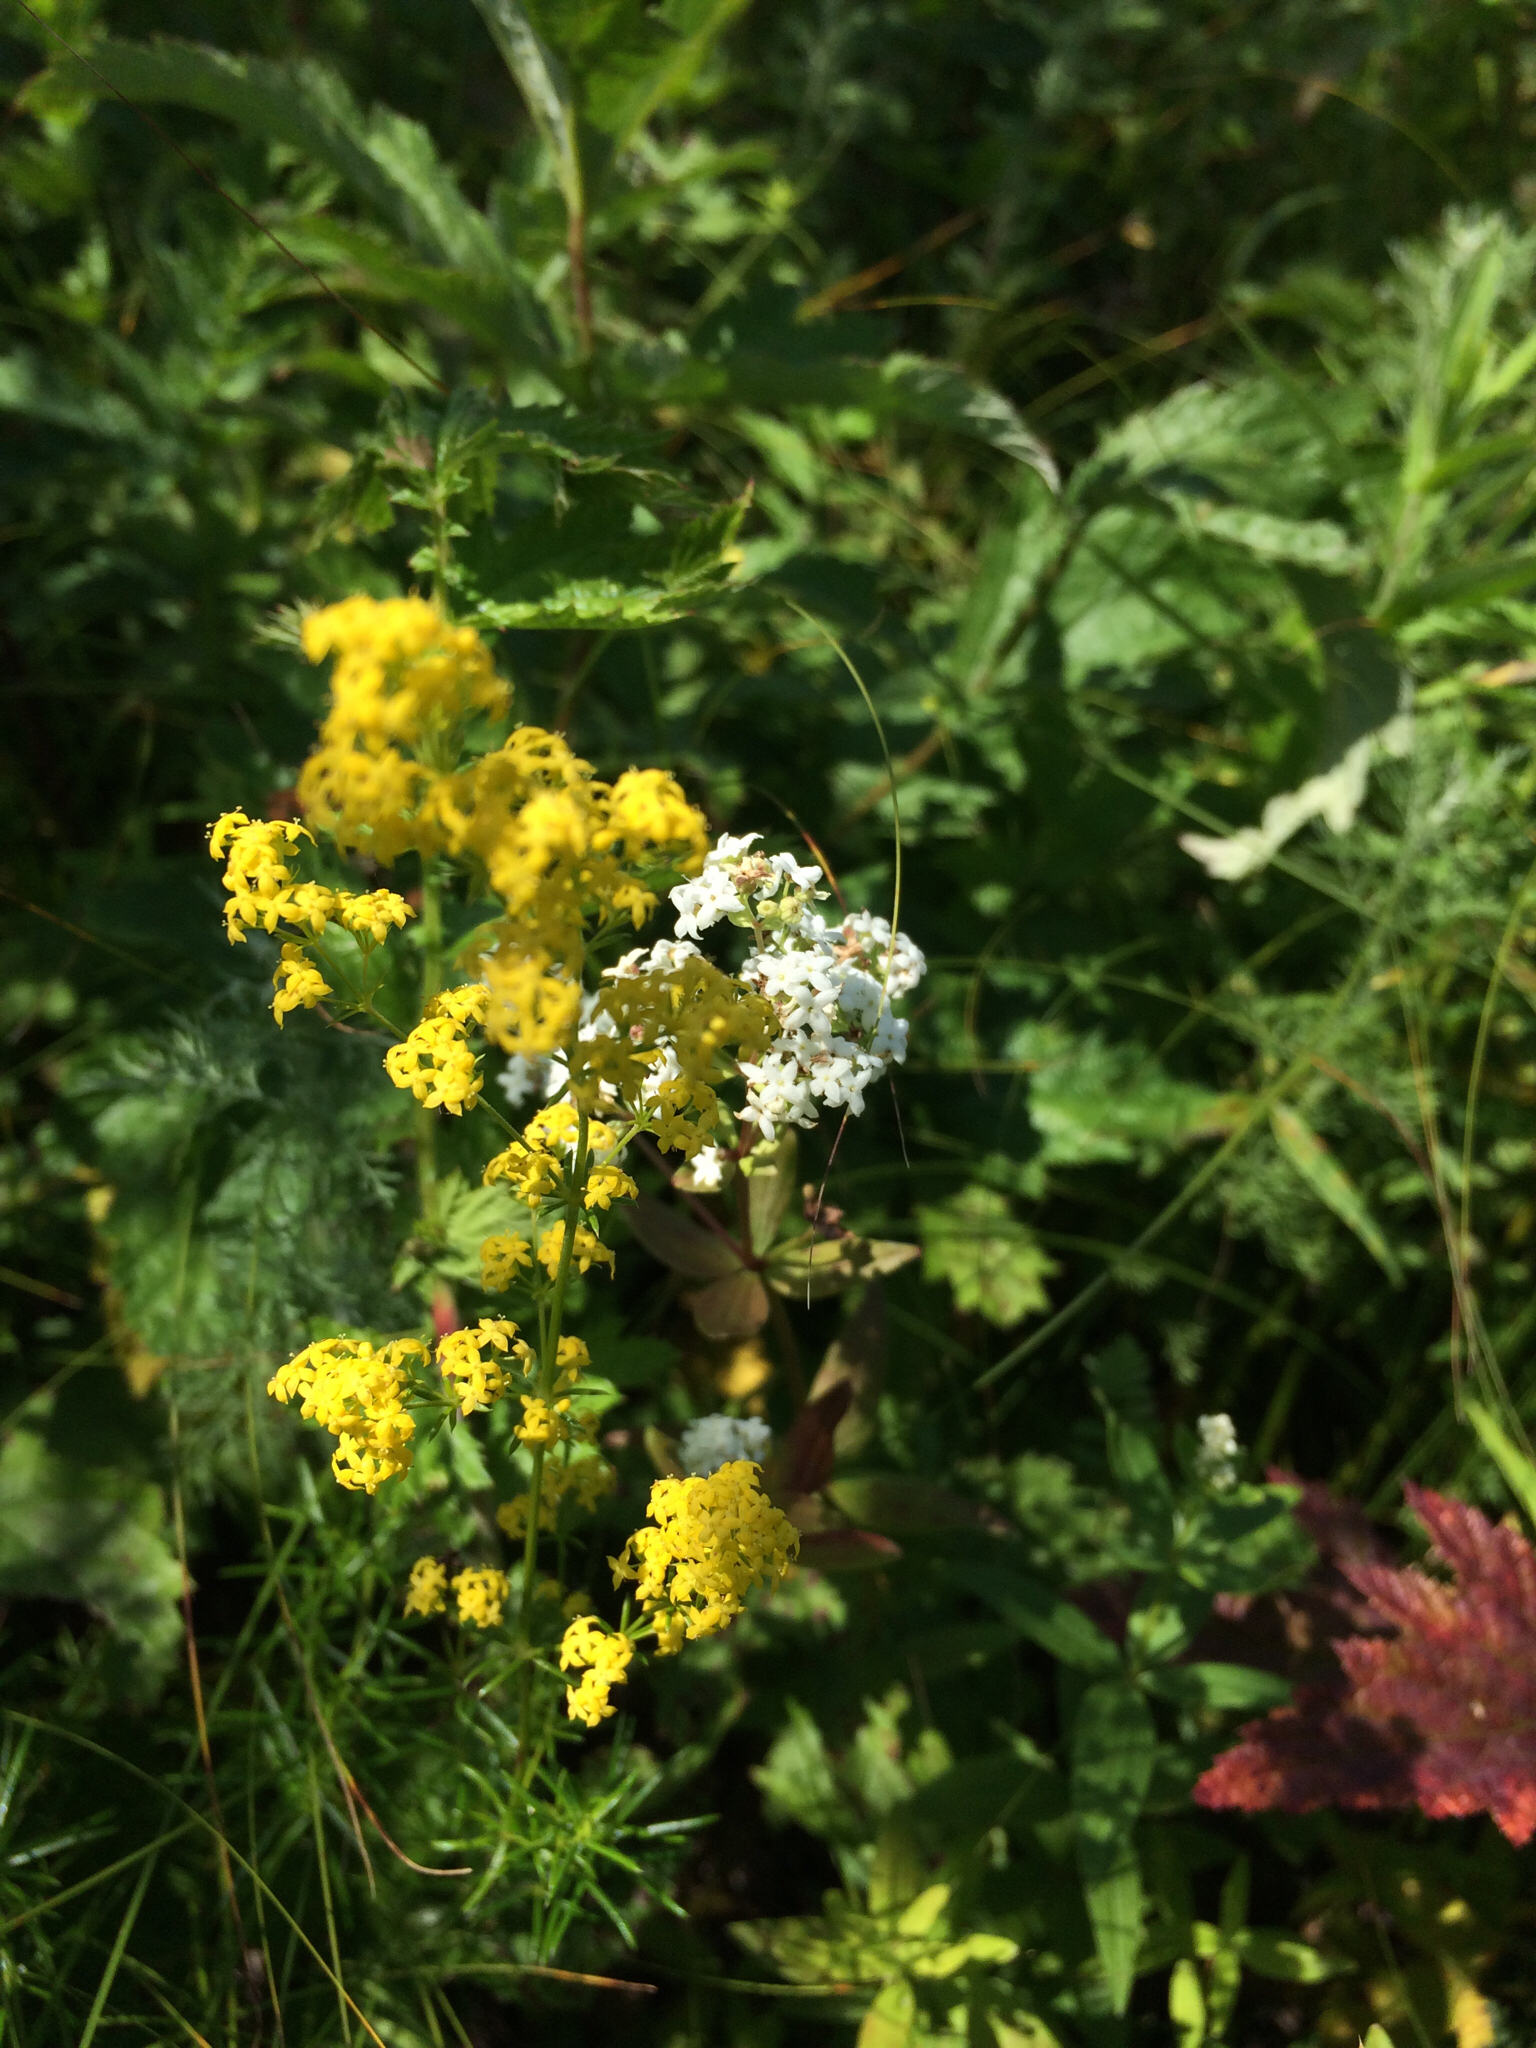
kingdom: Plantae
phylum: Tracheophyta
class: Magnoliopsida
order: Gentianales
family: Rubiaceae
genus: Galium
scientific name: Galium verum
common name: Lady's bedstraw
